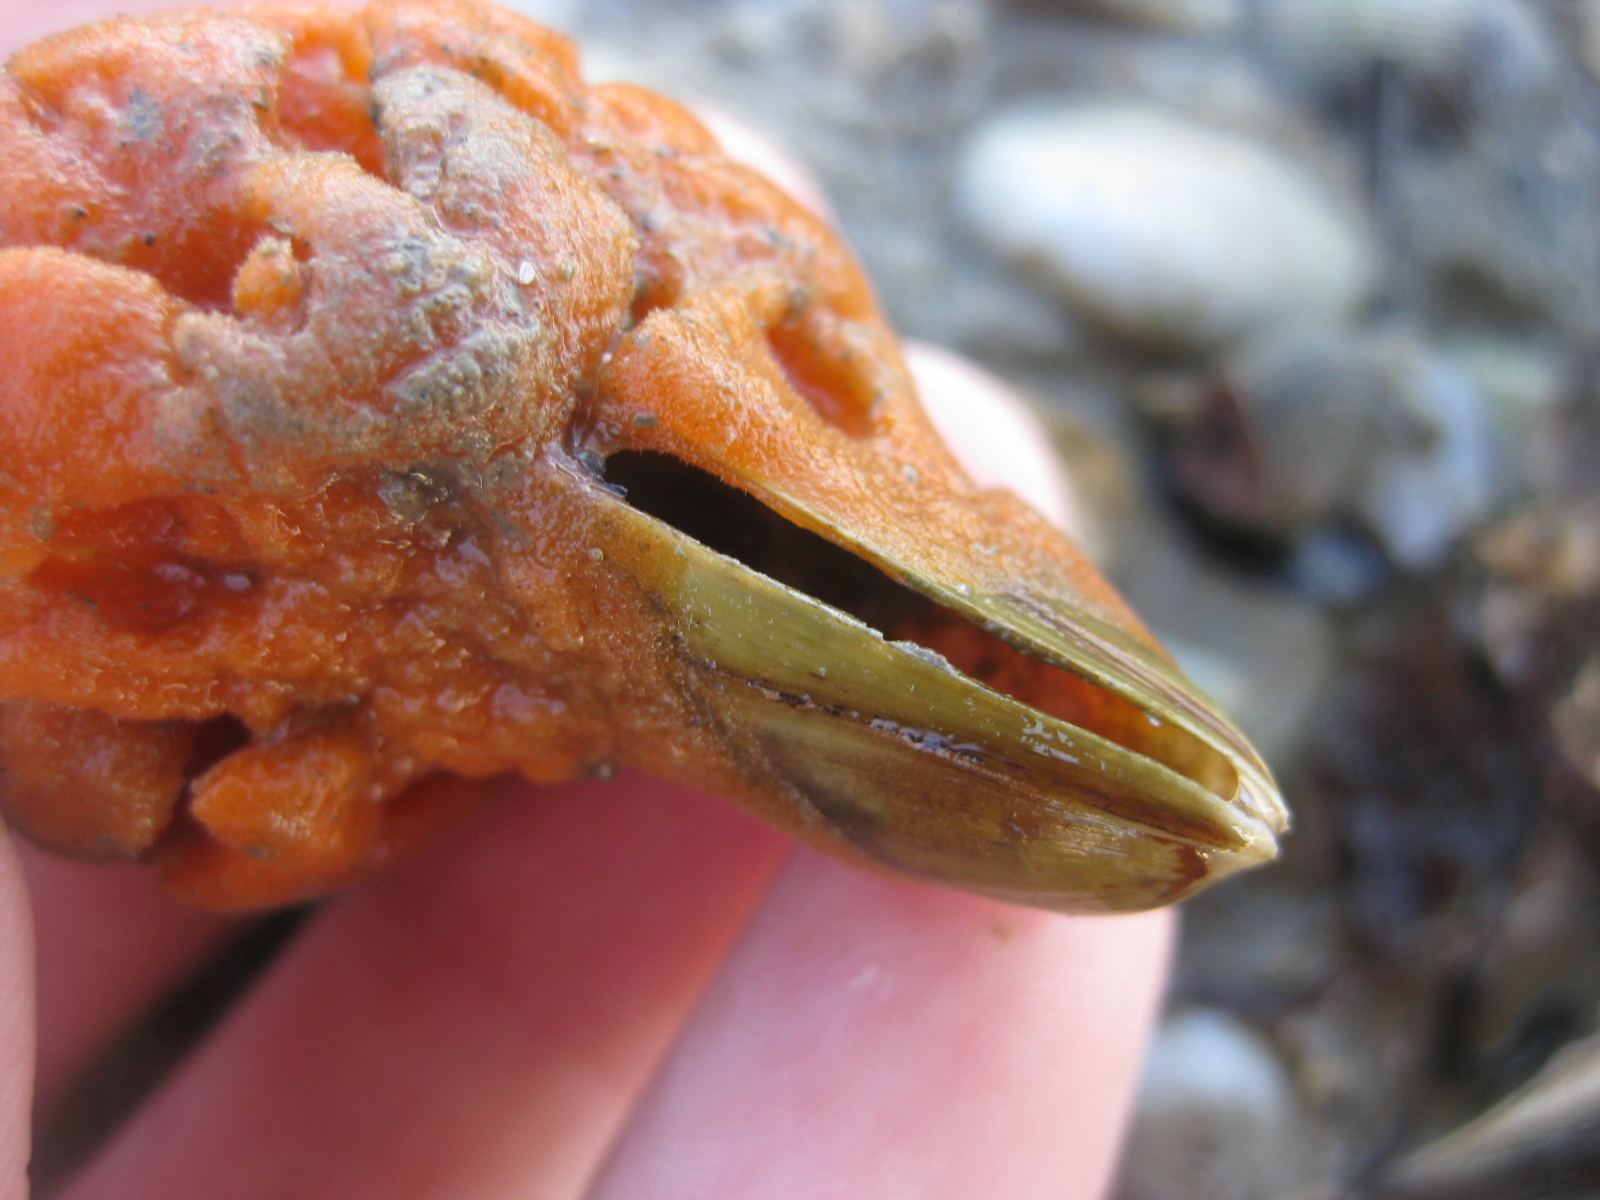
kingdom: Animalia
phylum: Mollusca
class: Bivalvia
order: Mytilida
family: Mytilidae
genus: Arcuatula
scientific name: Arcuatula senhousia
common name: Asian mussel
